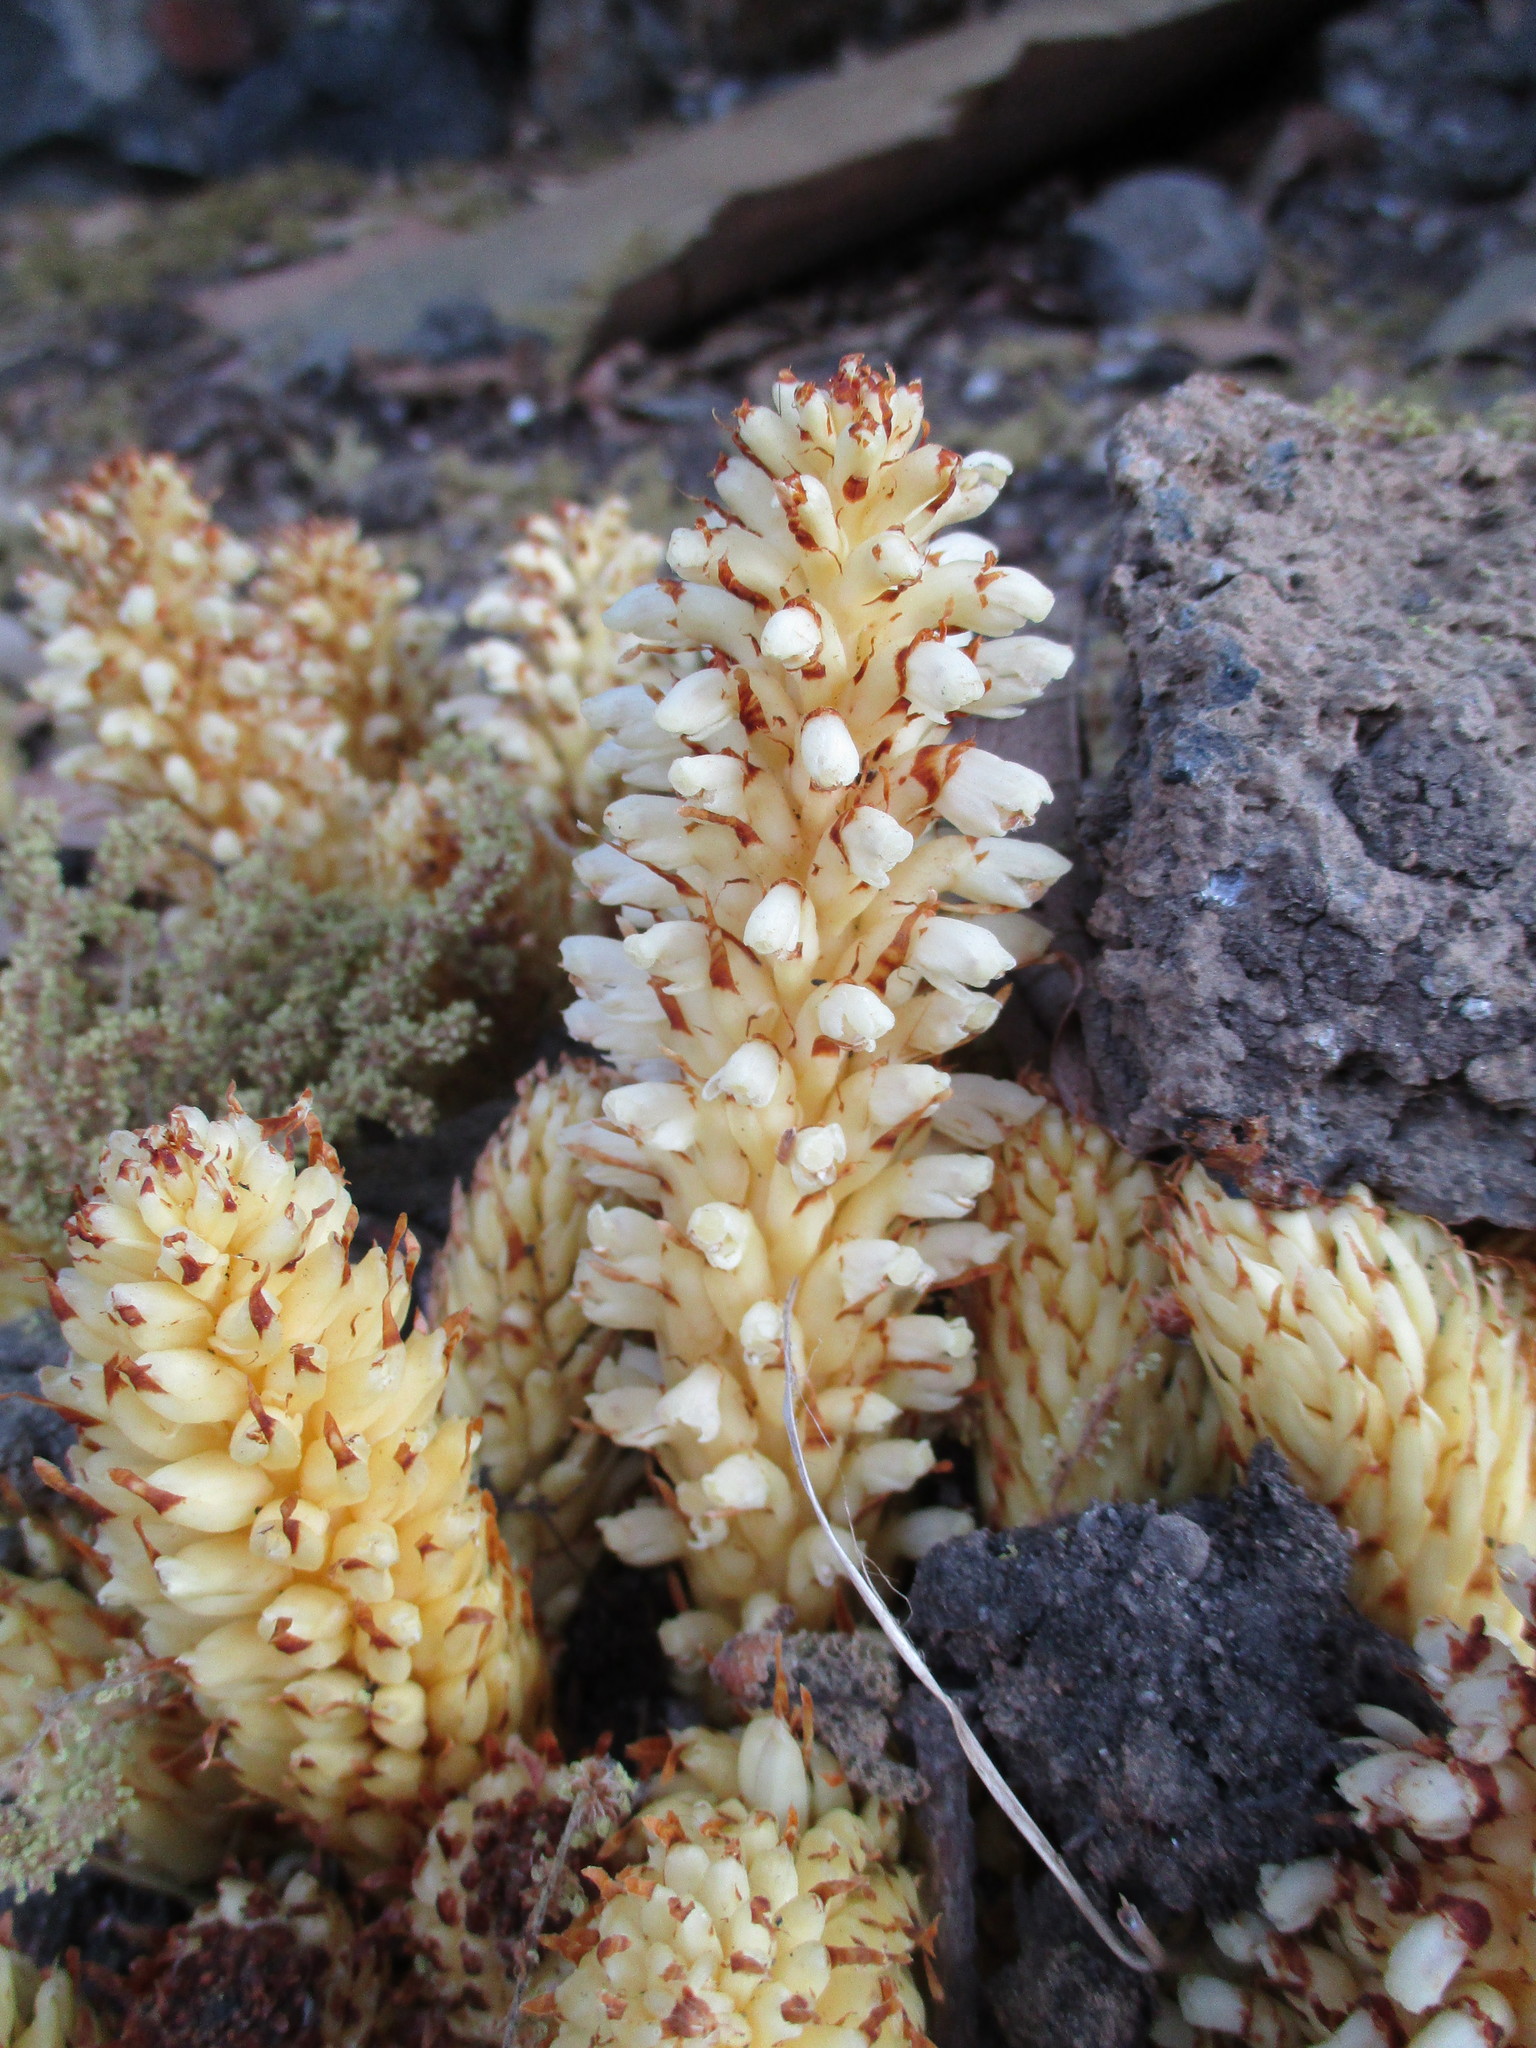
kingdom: Plantae
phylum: Tracheophyta
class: Magnoliopsida
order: Lamiales
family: Orobanchaceae
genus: Conopholis
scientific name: Conopholis alpina
